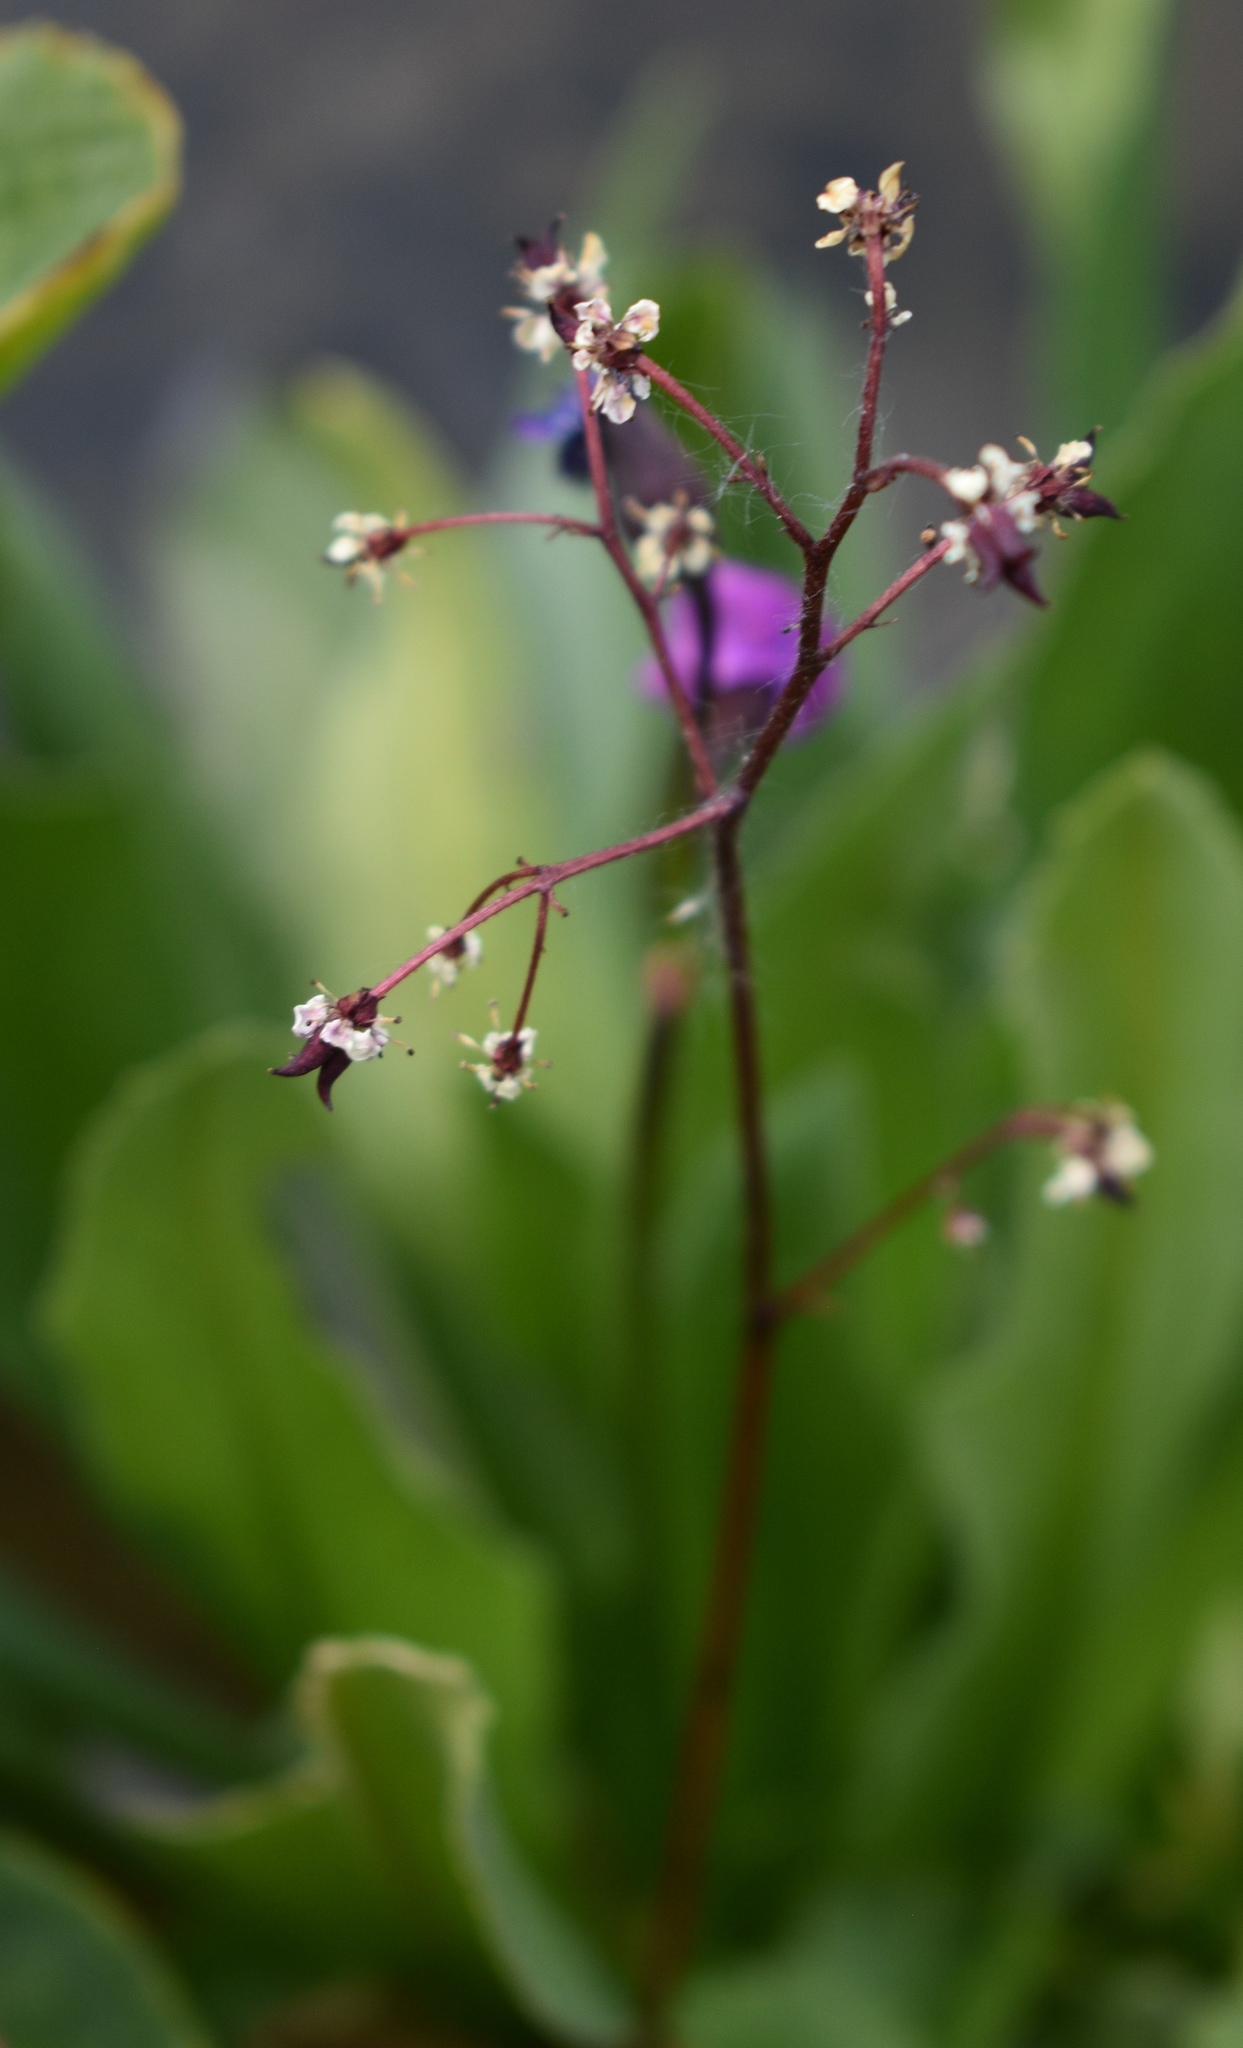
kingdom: Plantae
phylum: Tracheophyta
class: Magnoliopsida
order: Saxifragales
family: Saxifragaceae
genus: Micranthes
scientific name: Micranthes odontoloma
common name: Brook saxifrage
